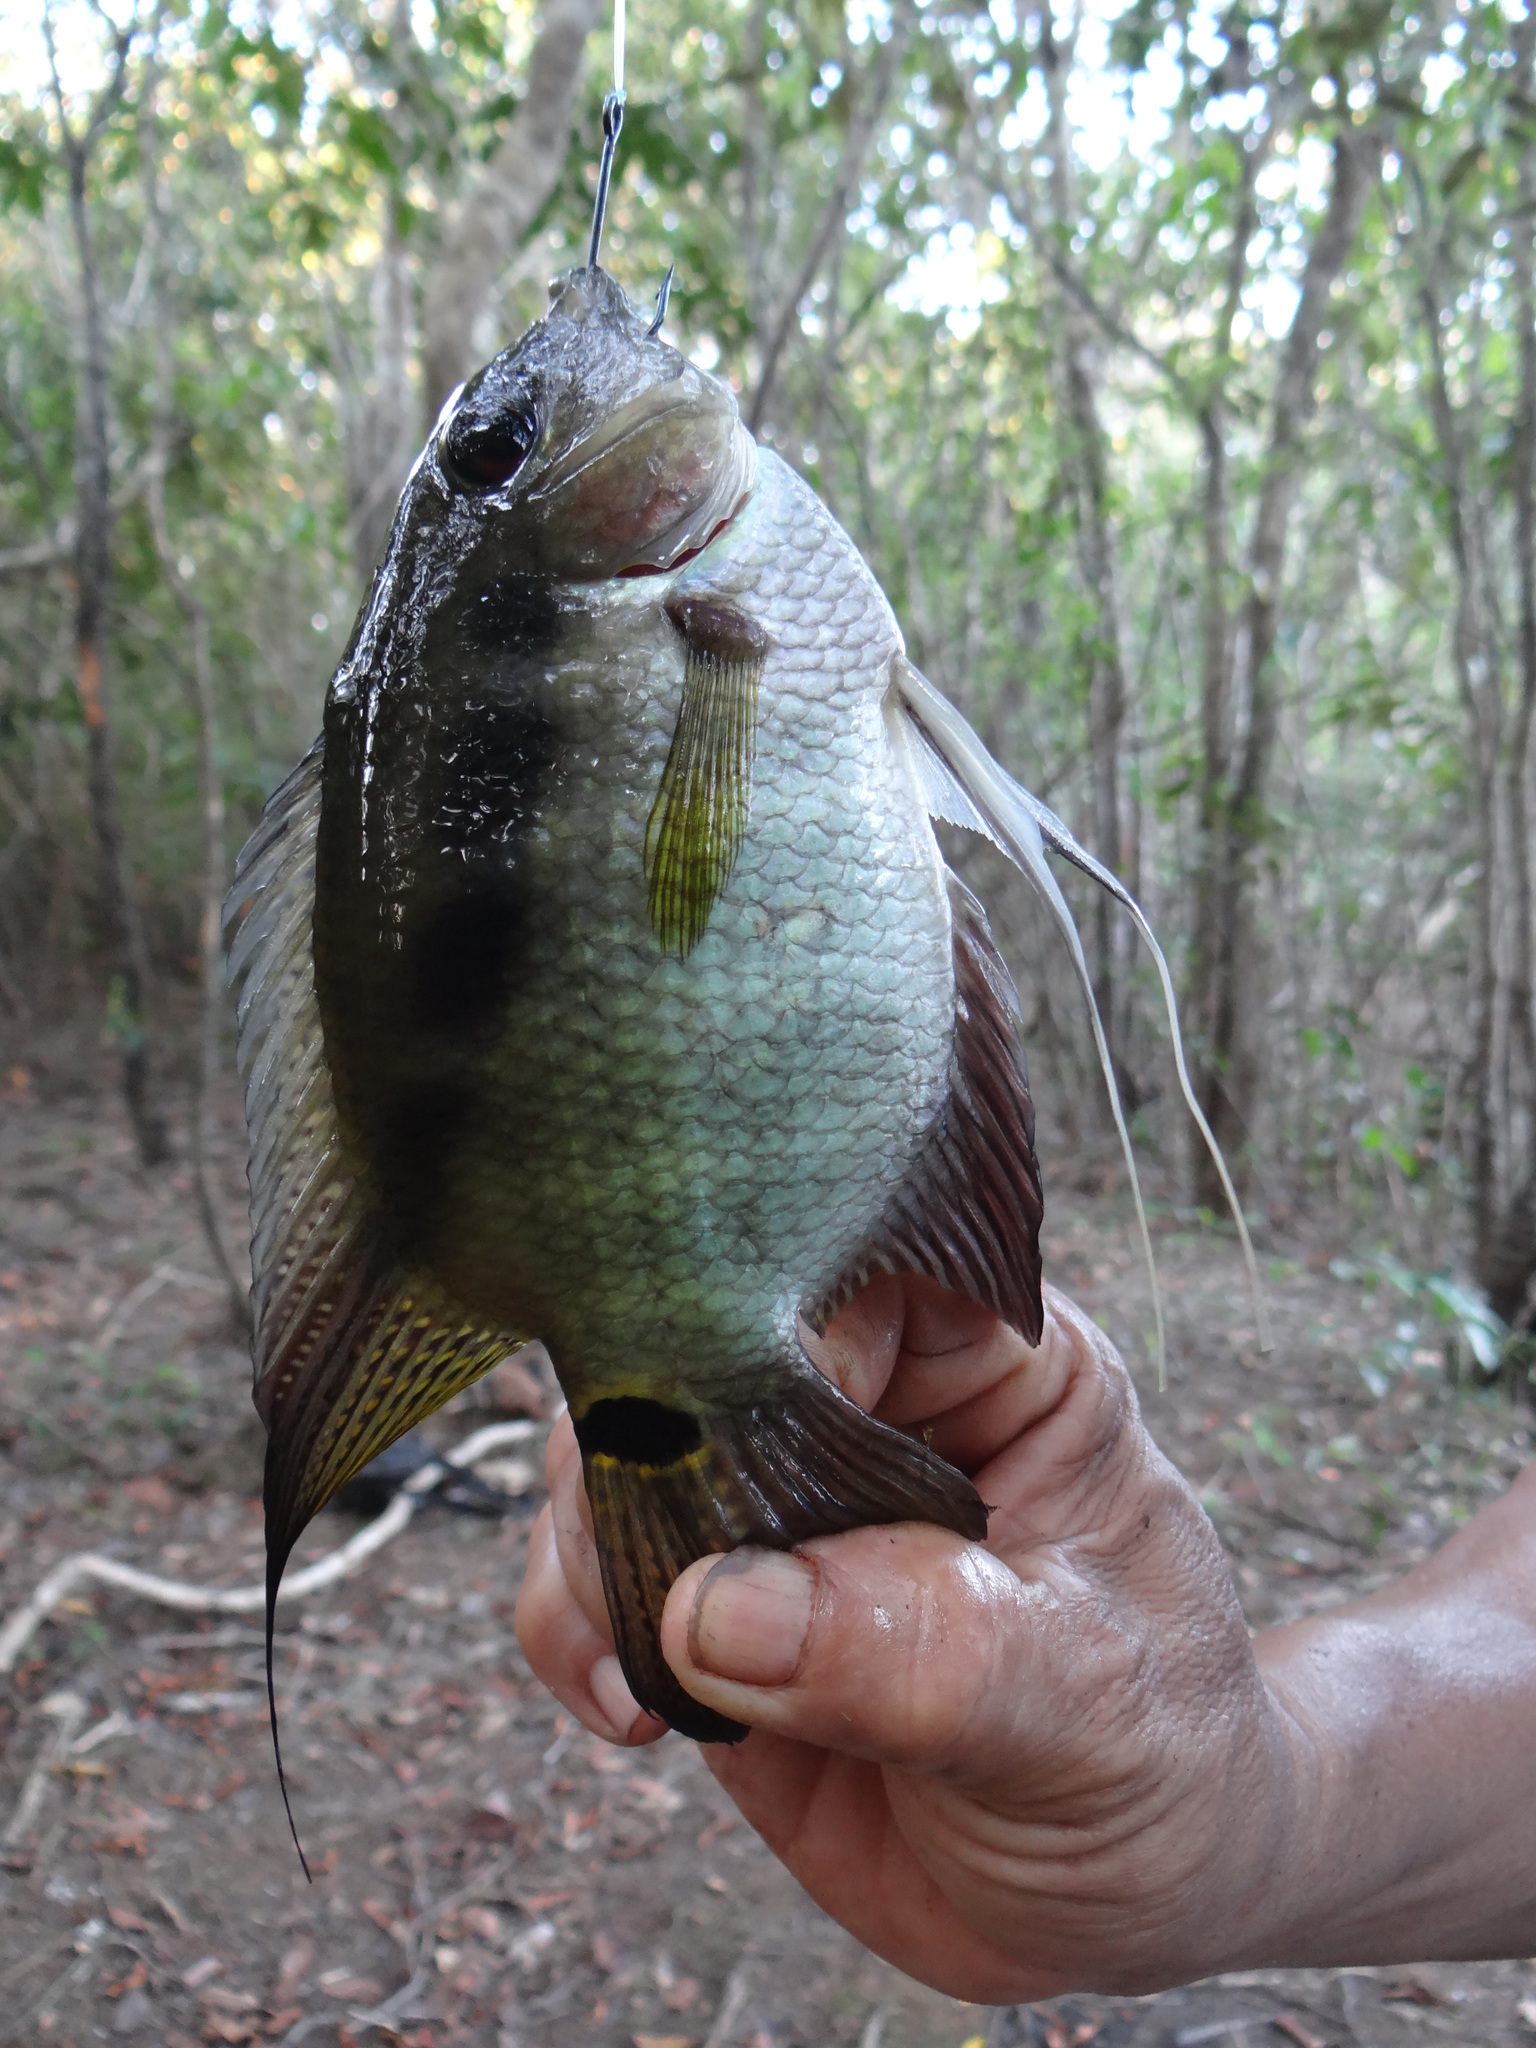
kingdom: Animalia
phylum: Chordata
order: Perciformes
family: Cichlidae
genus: Mesonauta
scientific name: Mesonauta festivus
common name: Flag cichlid
